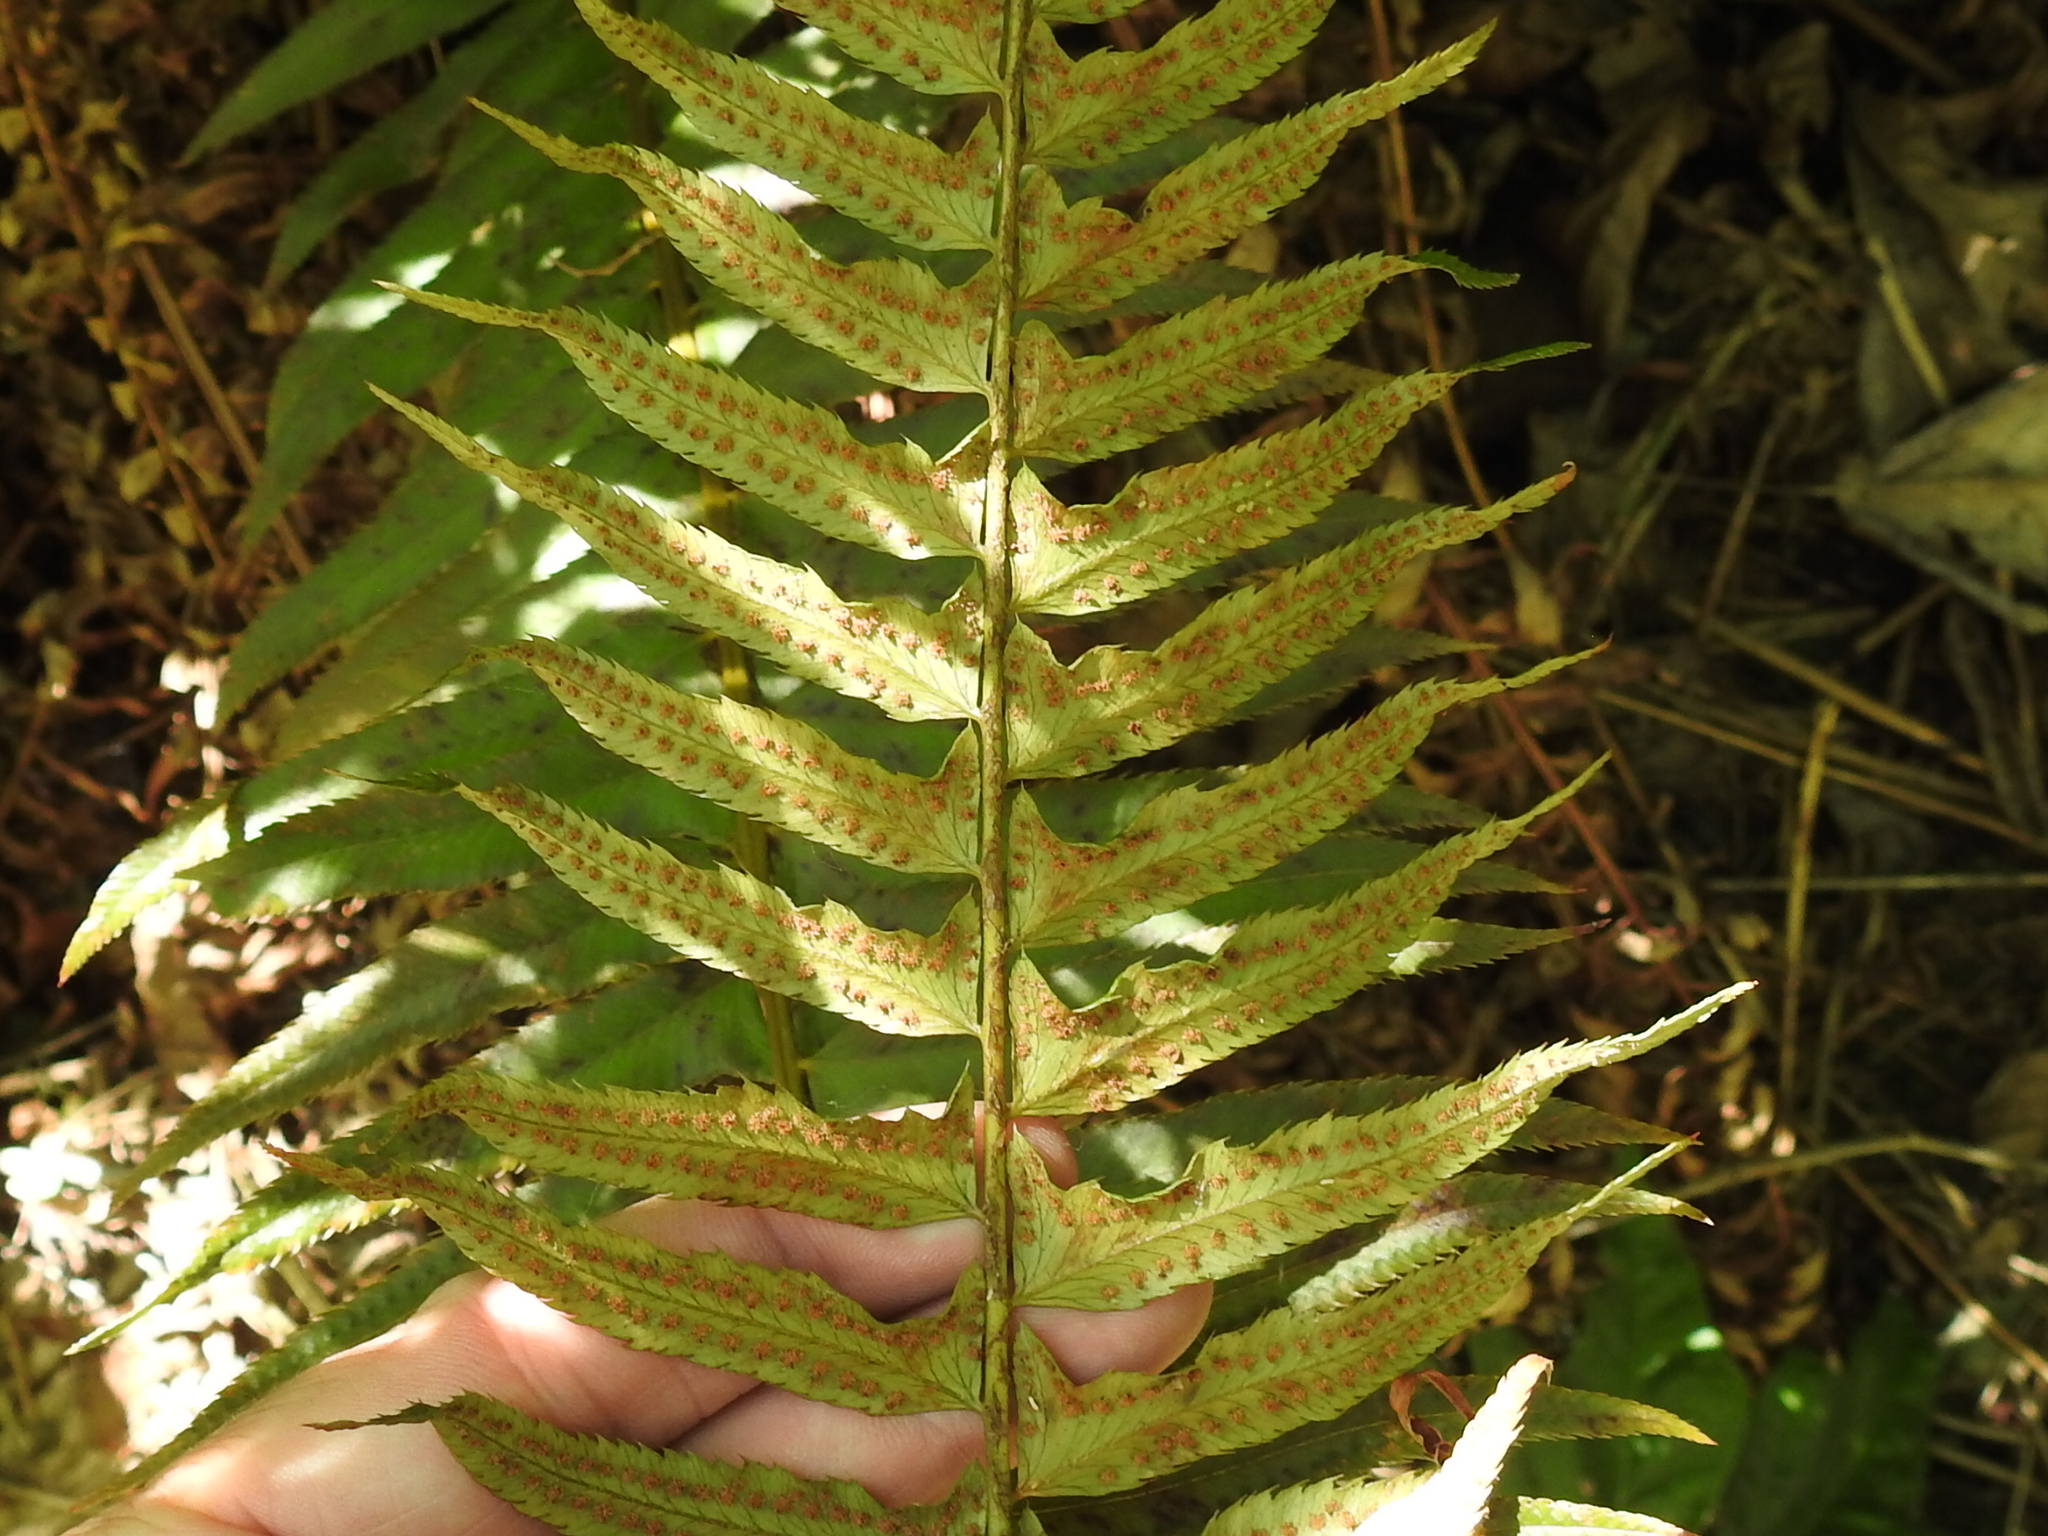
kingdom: Plantae
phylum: Tracheophyta
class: Polypodiopsida
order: Polypodiales
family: Dryopteridaceae
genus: Polystichum
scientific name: Polystichum munitum
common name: Western sword-fern
